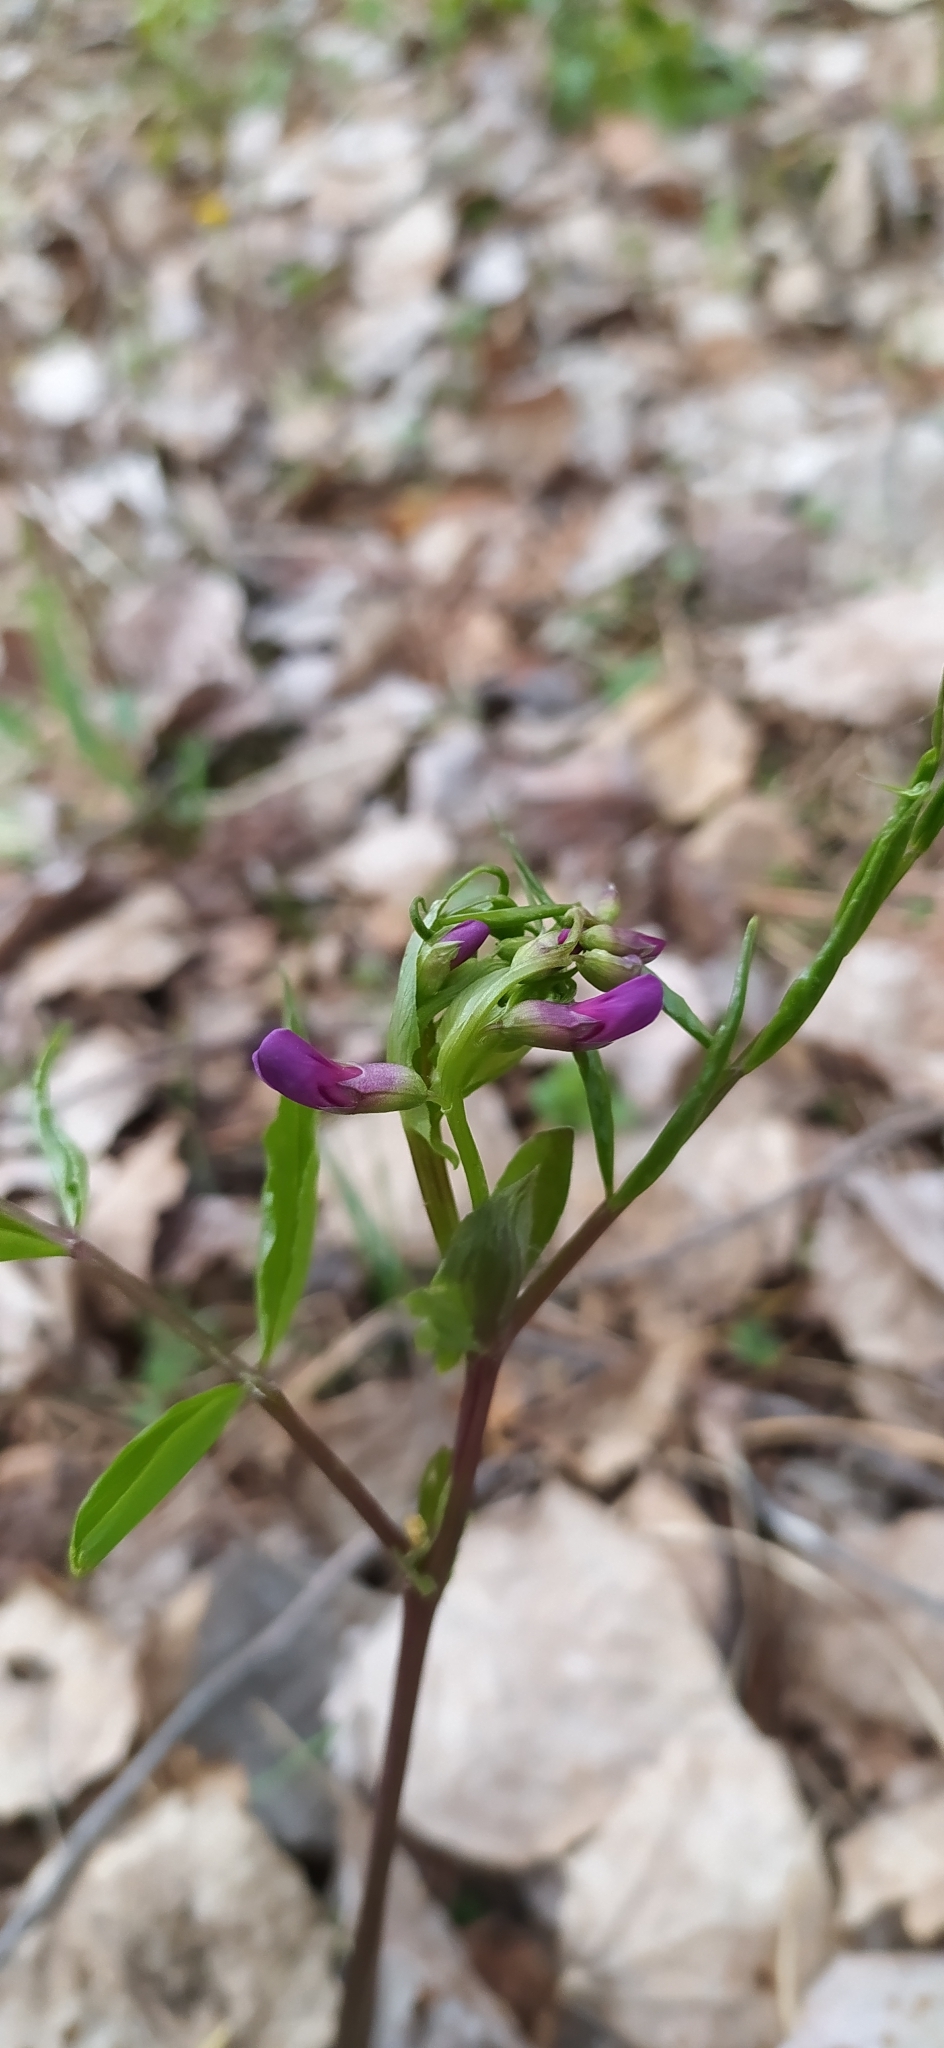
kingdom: Plantae
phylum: Tracheophyta
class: Magnoliopsida
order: Fabales
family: Fabaceae
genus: Lathyrus
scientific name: Lathyrus vernus
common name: Spring pea
